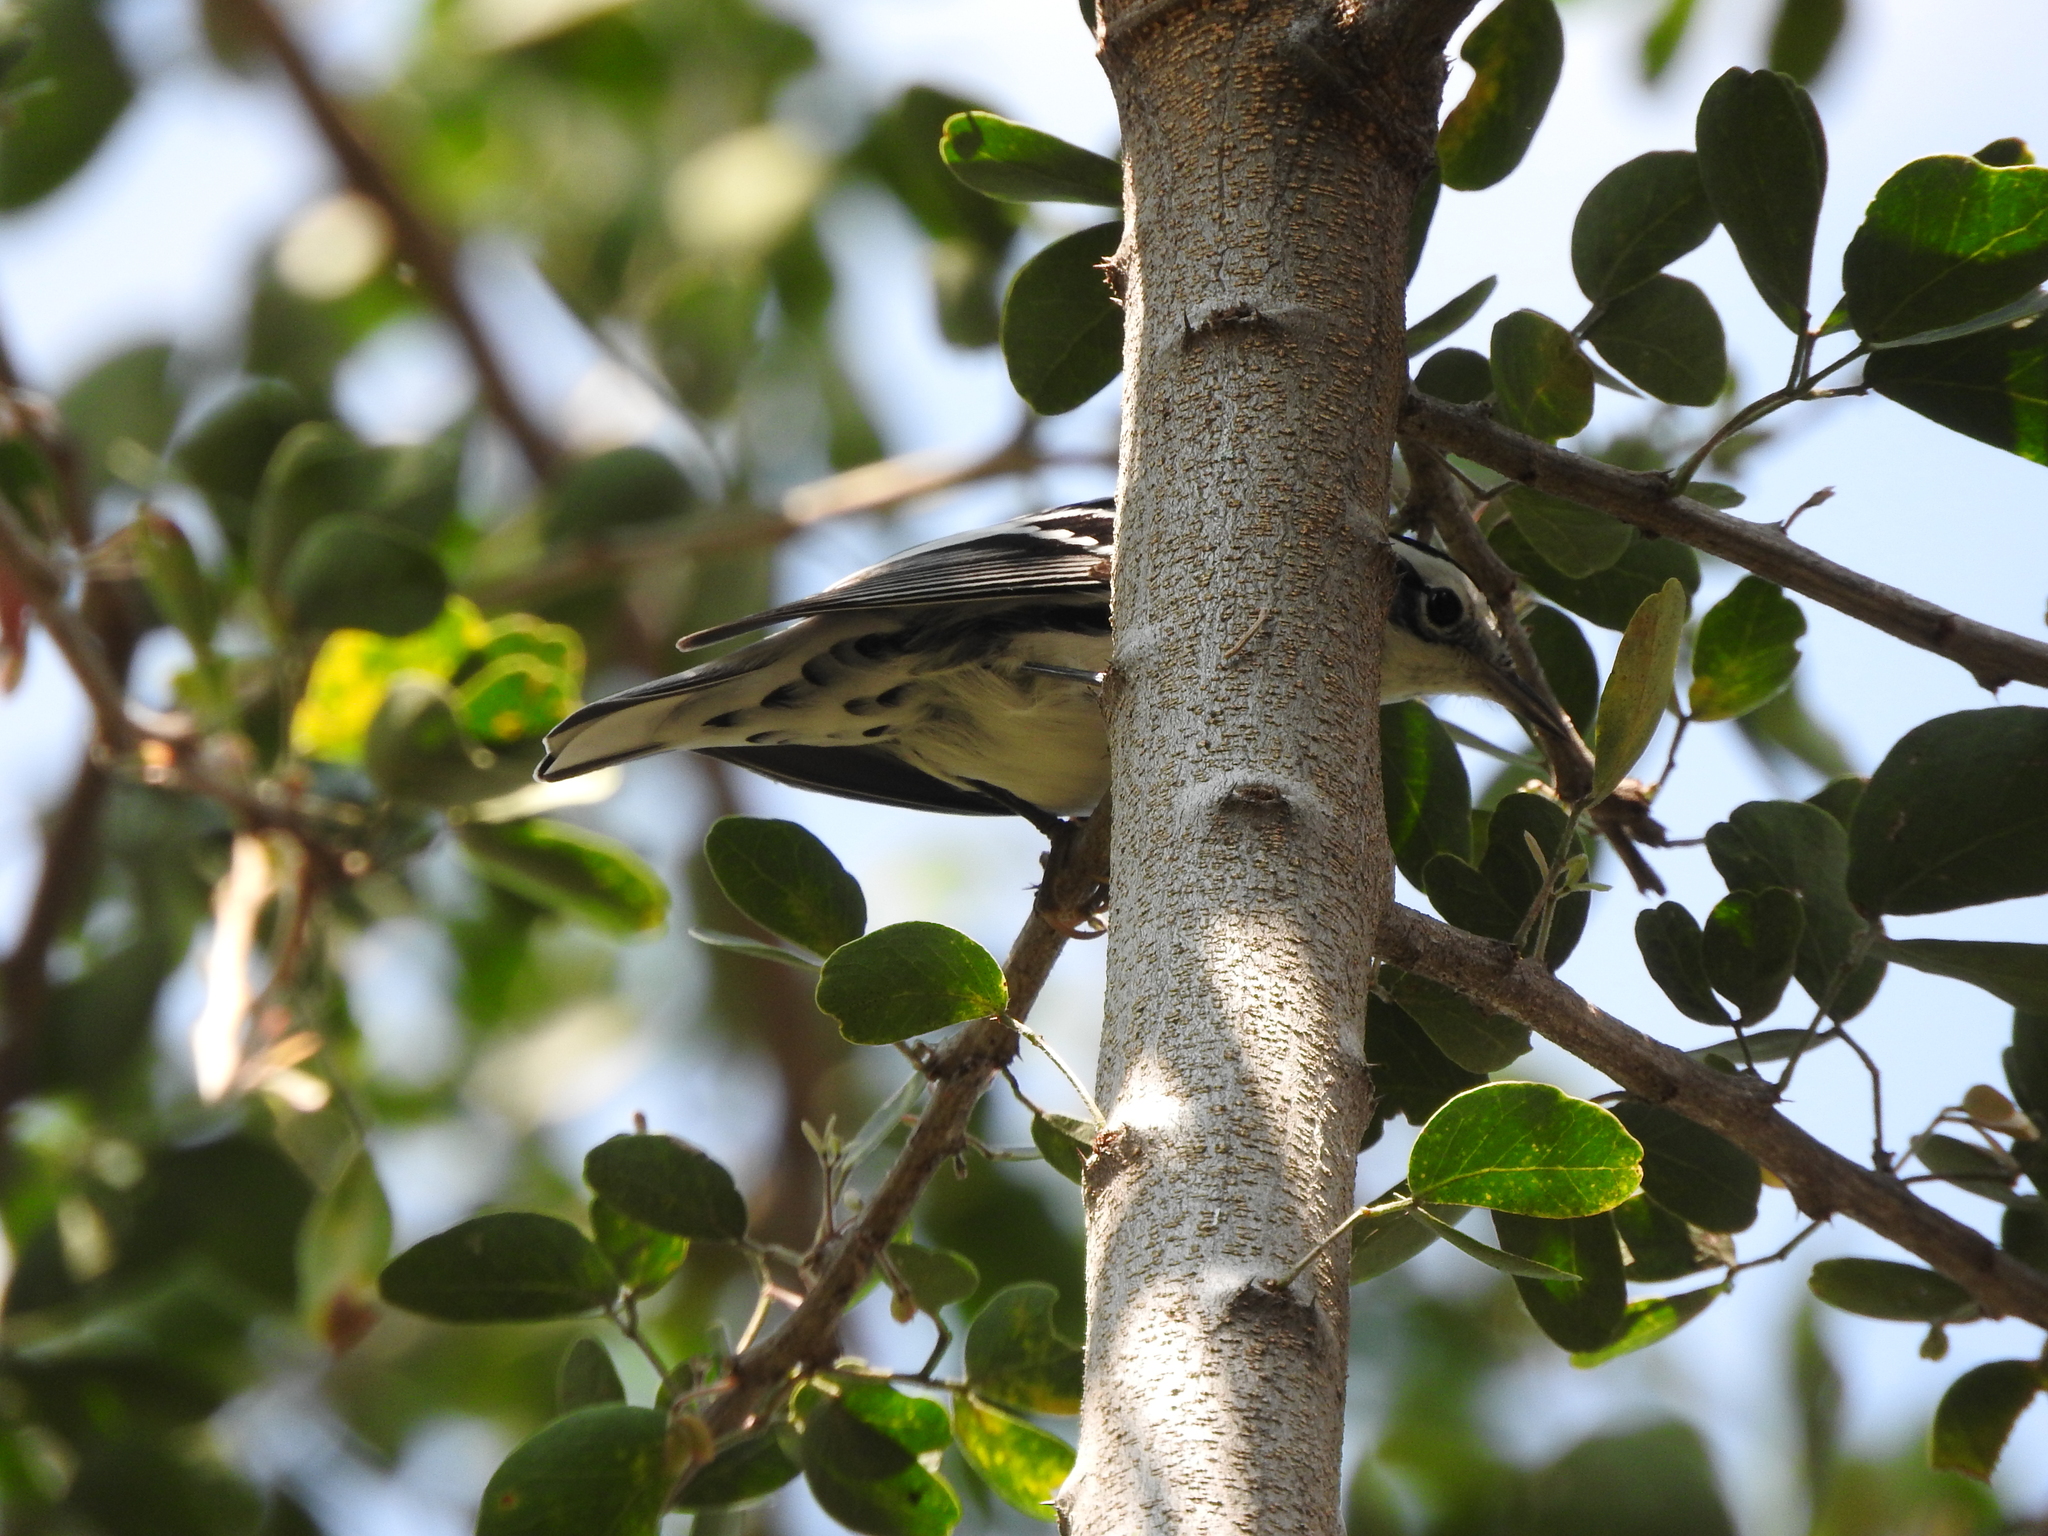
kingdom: Animalia
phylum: Chordata
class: Aves
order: Passeriformes
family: Parulidae
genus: Mniotilta
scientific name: Mniotilta varia
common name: Black-and-white warbler
